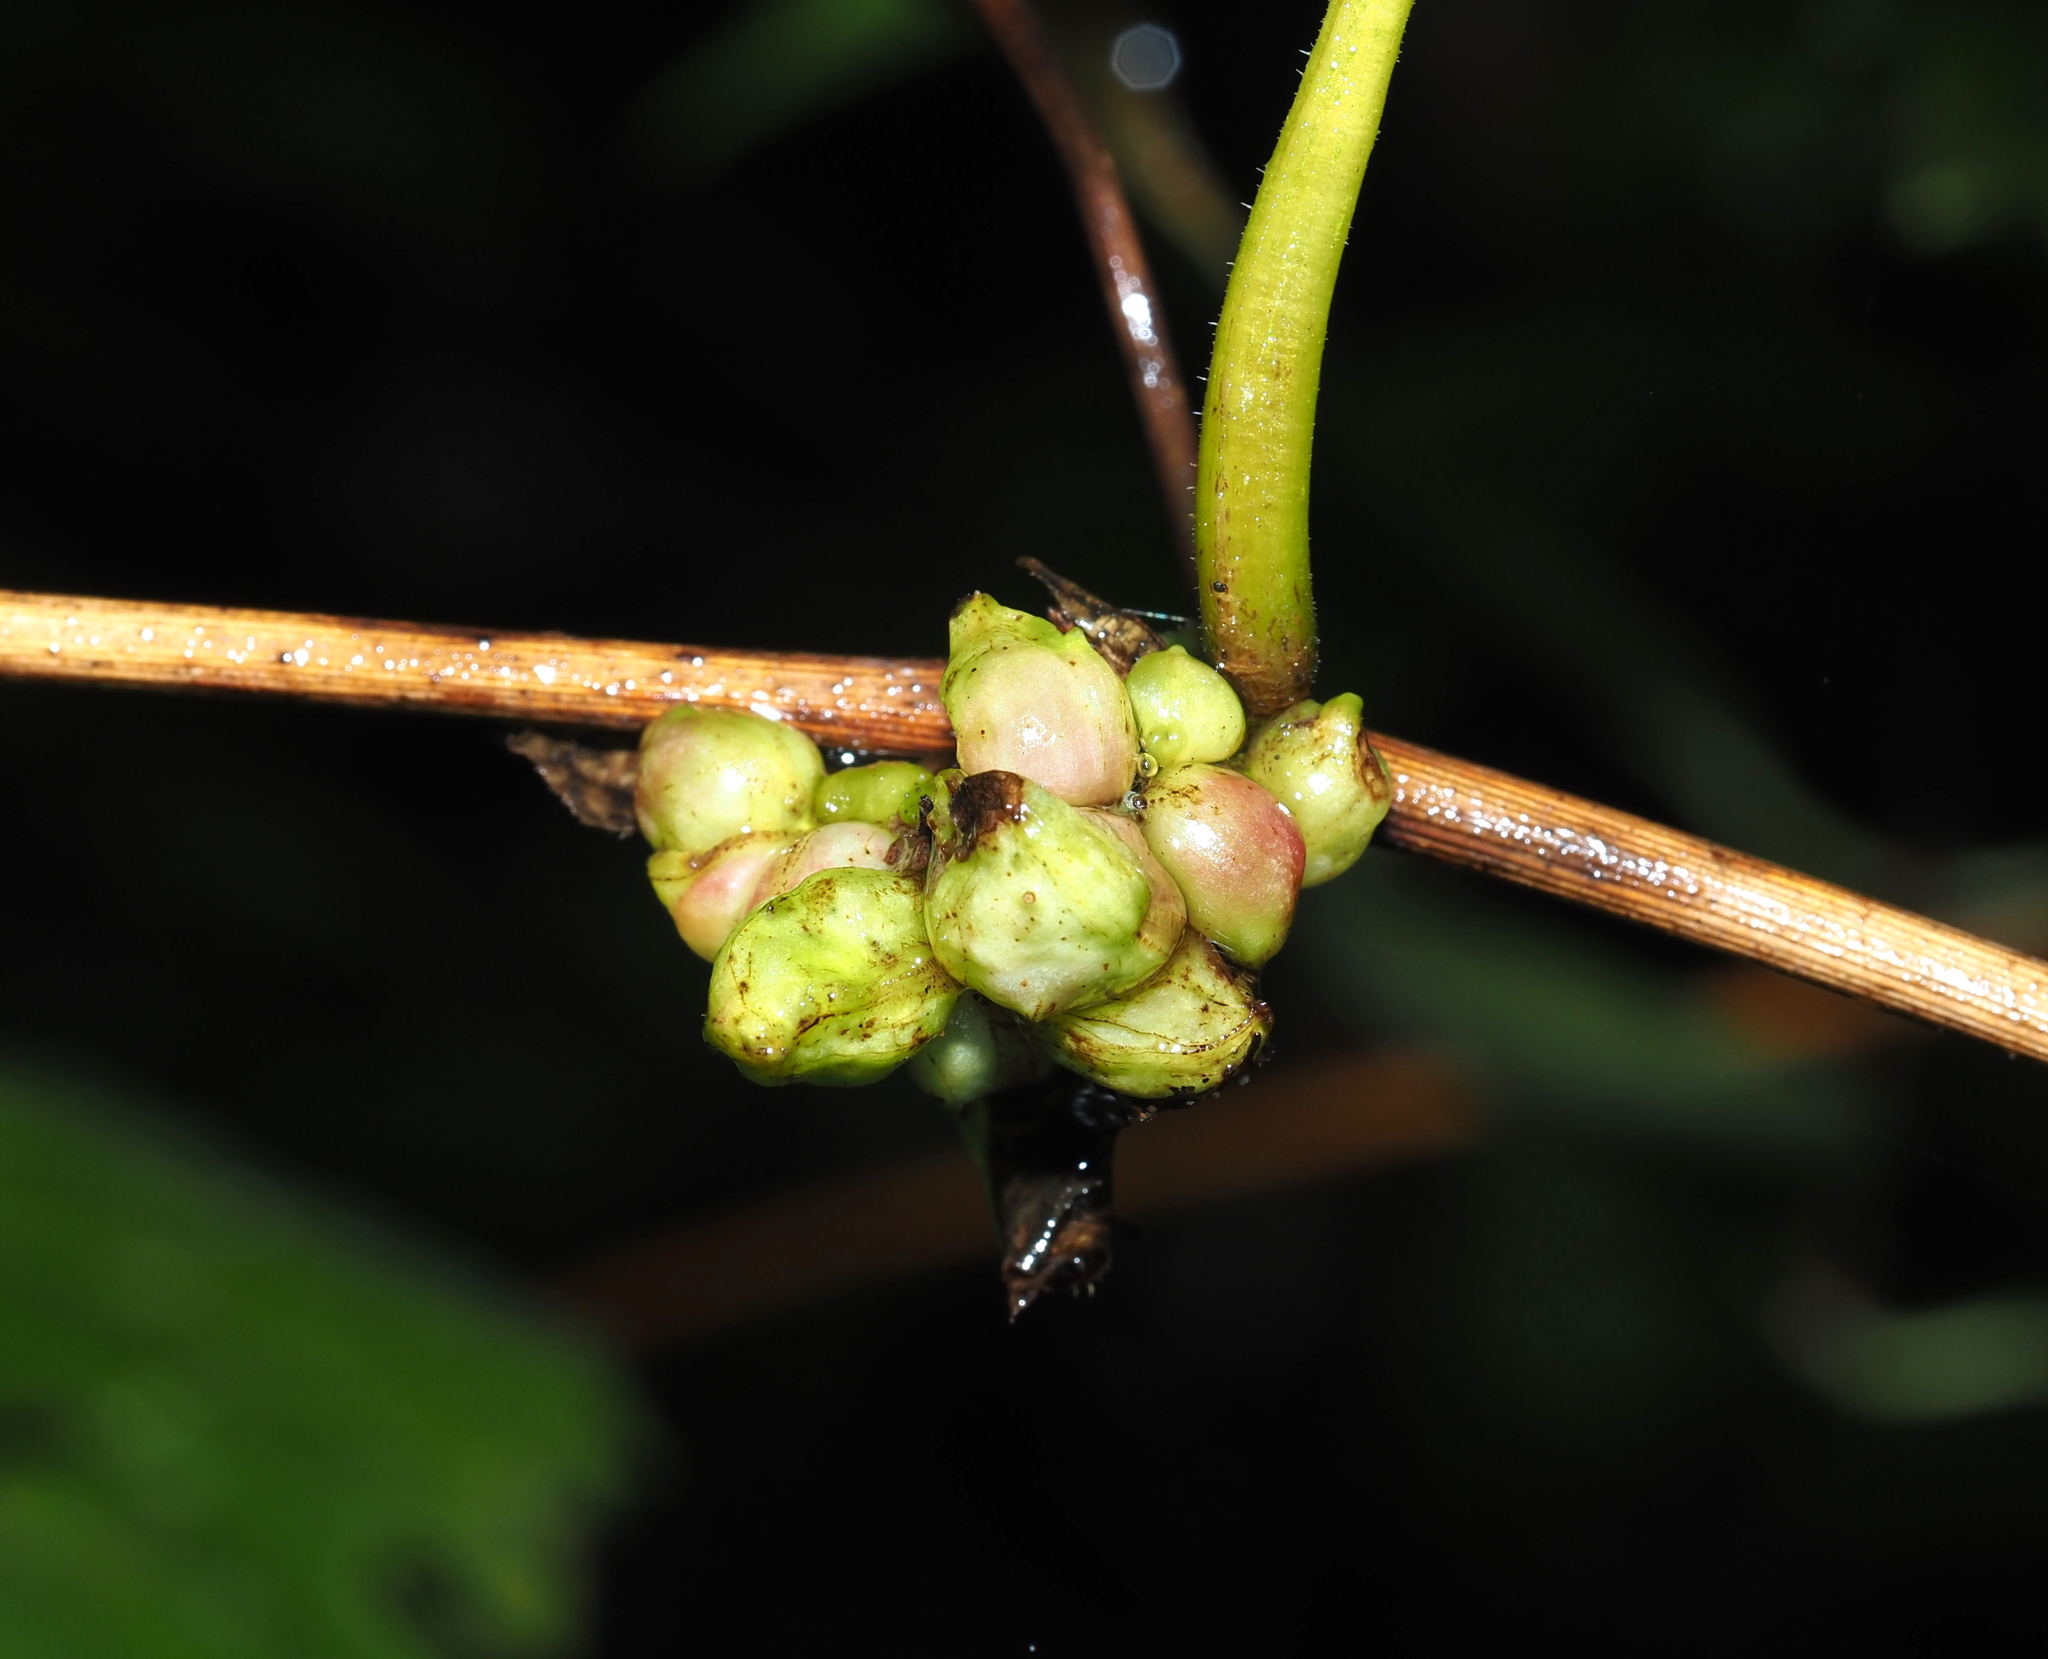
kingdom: Animalia
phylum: Arthropoda
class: Insecta
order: Diptera
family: Cecidomyiidae
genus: Ampelomyia
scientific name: Ampelomyia vitiscoryloides
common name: Grape filbert gall
